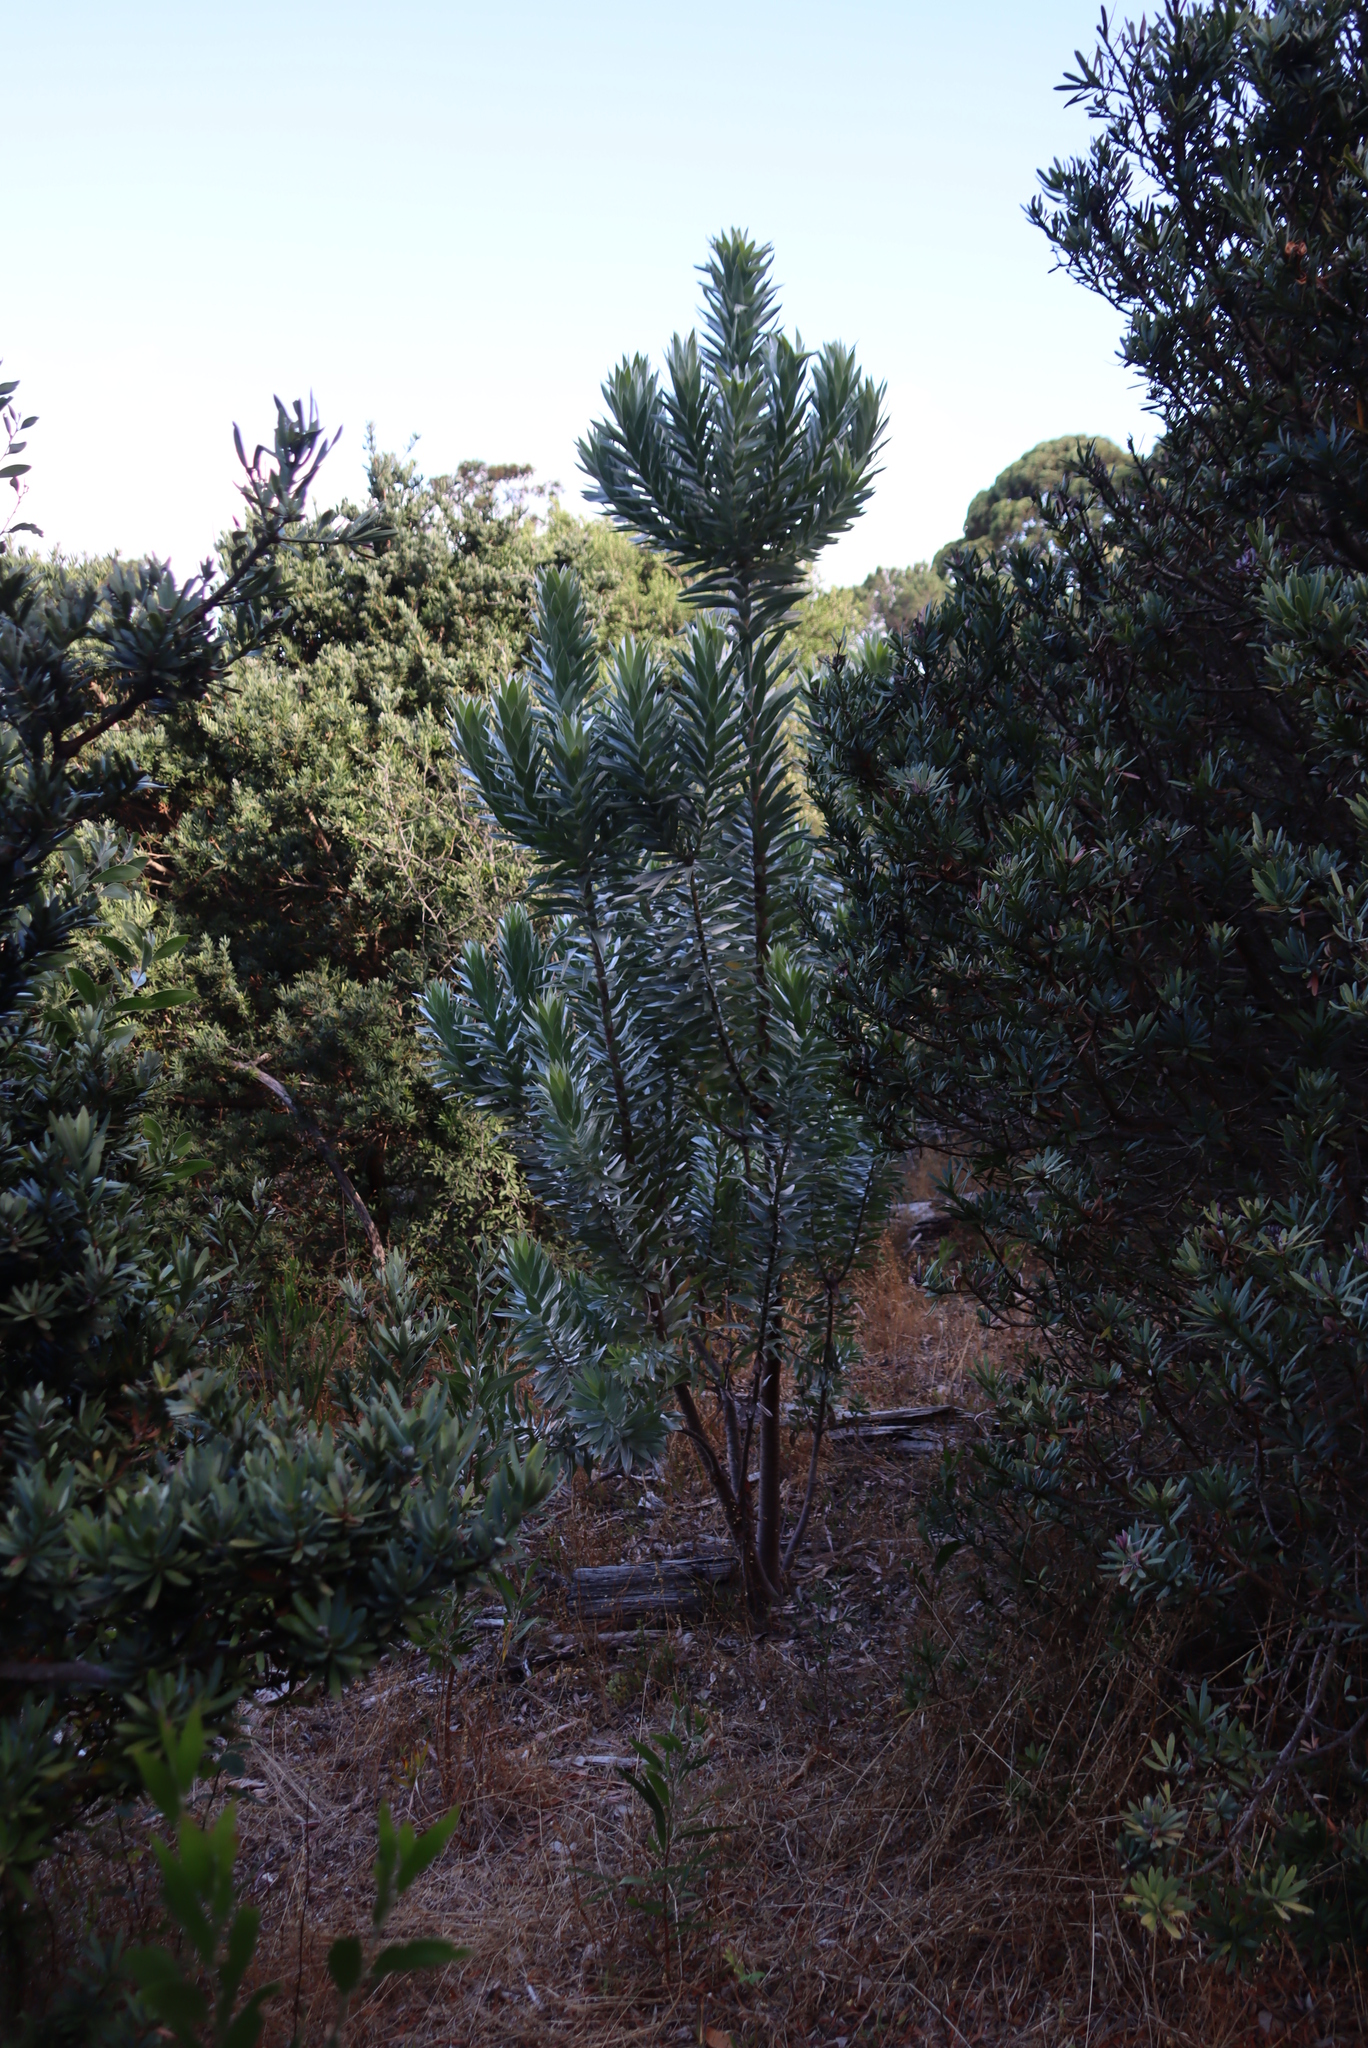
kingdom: Plantae
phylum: Tracheophyta
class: Magnoliopsida
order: Proteales
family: Proteaceae
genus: Leucadendron
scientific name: Leucadendron argenteum
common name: Cape silver tree
